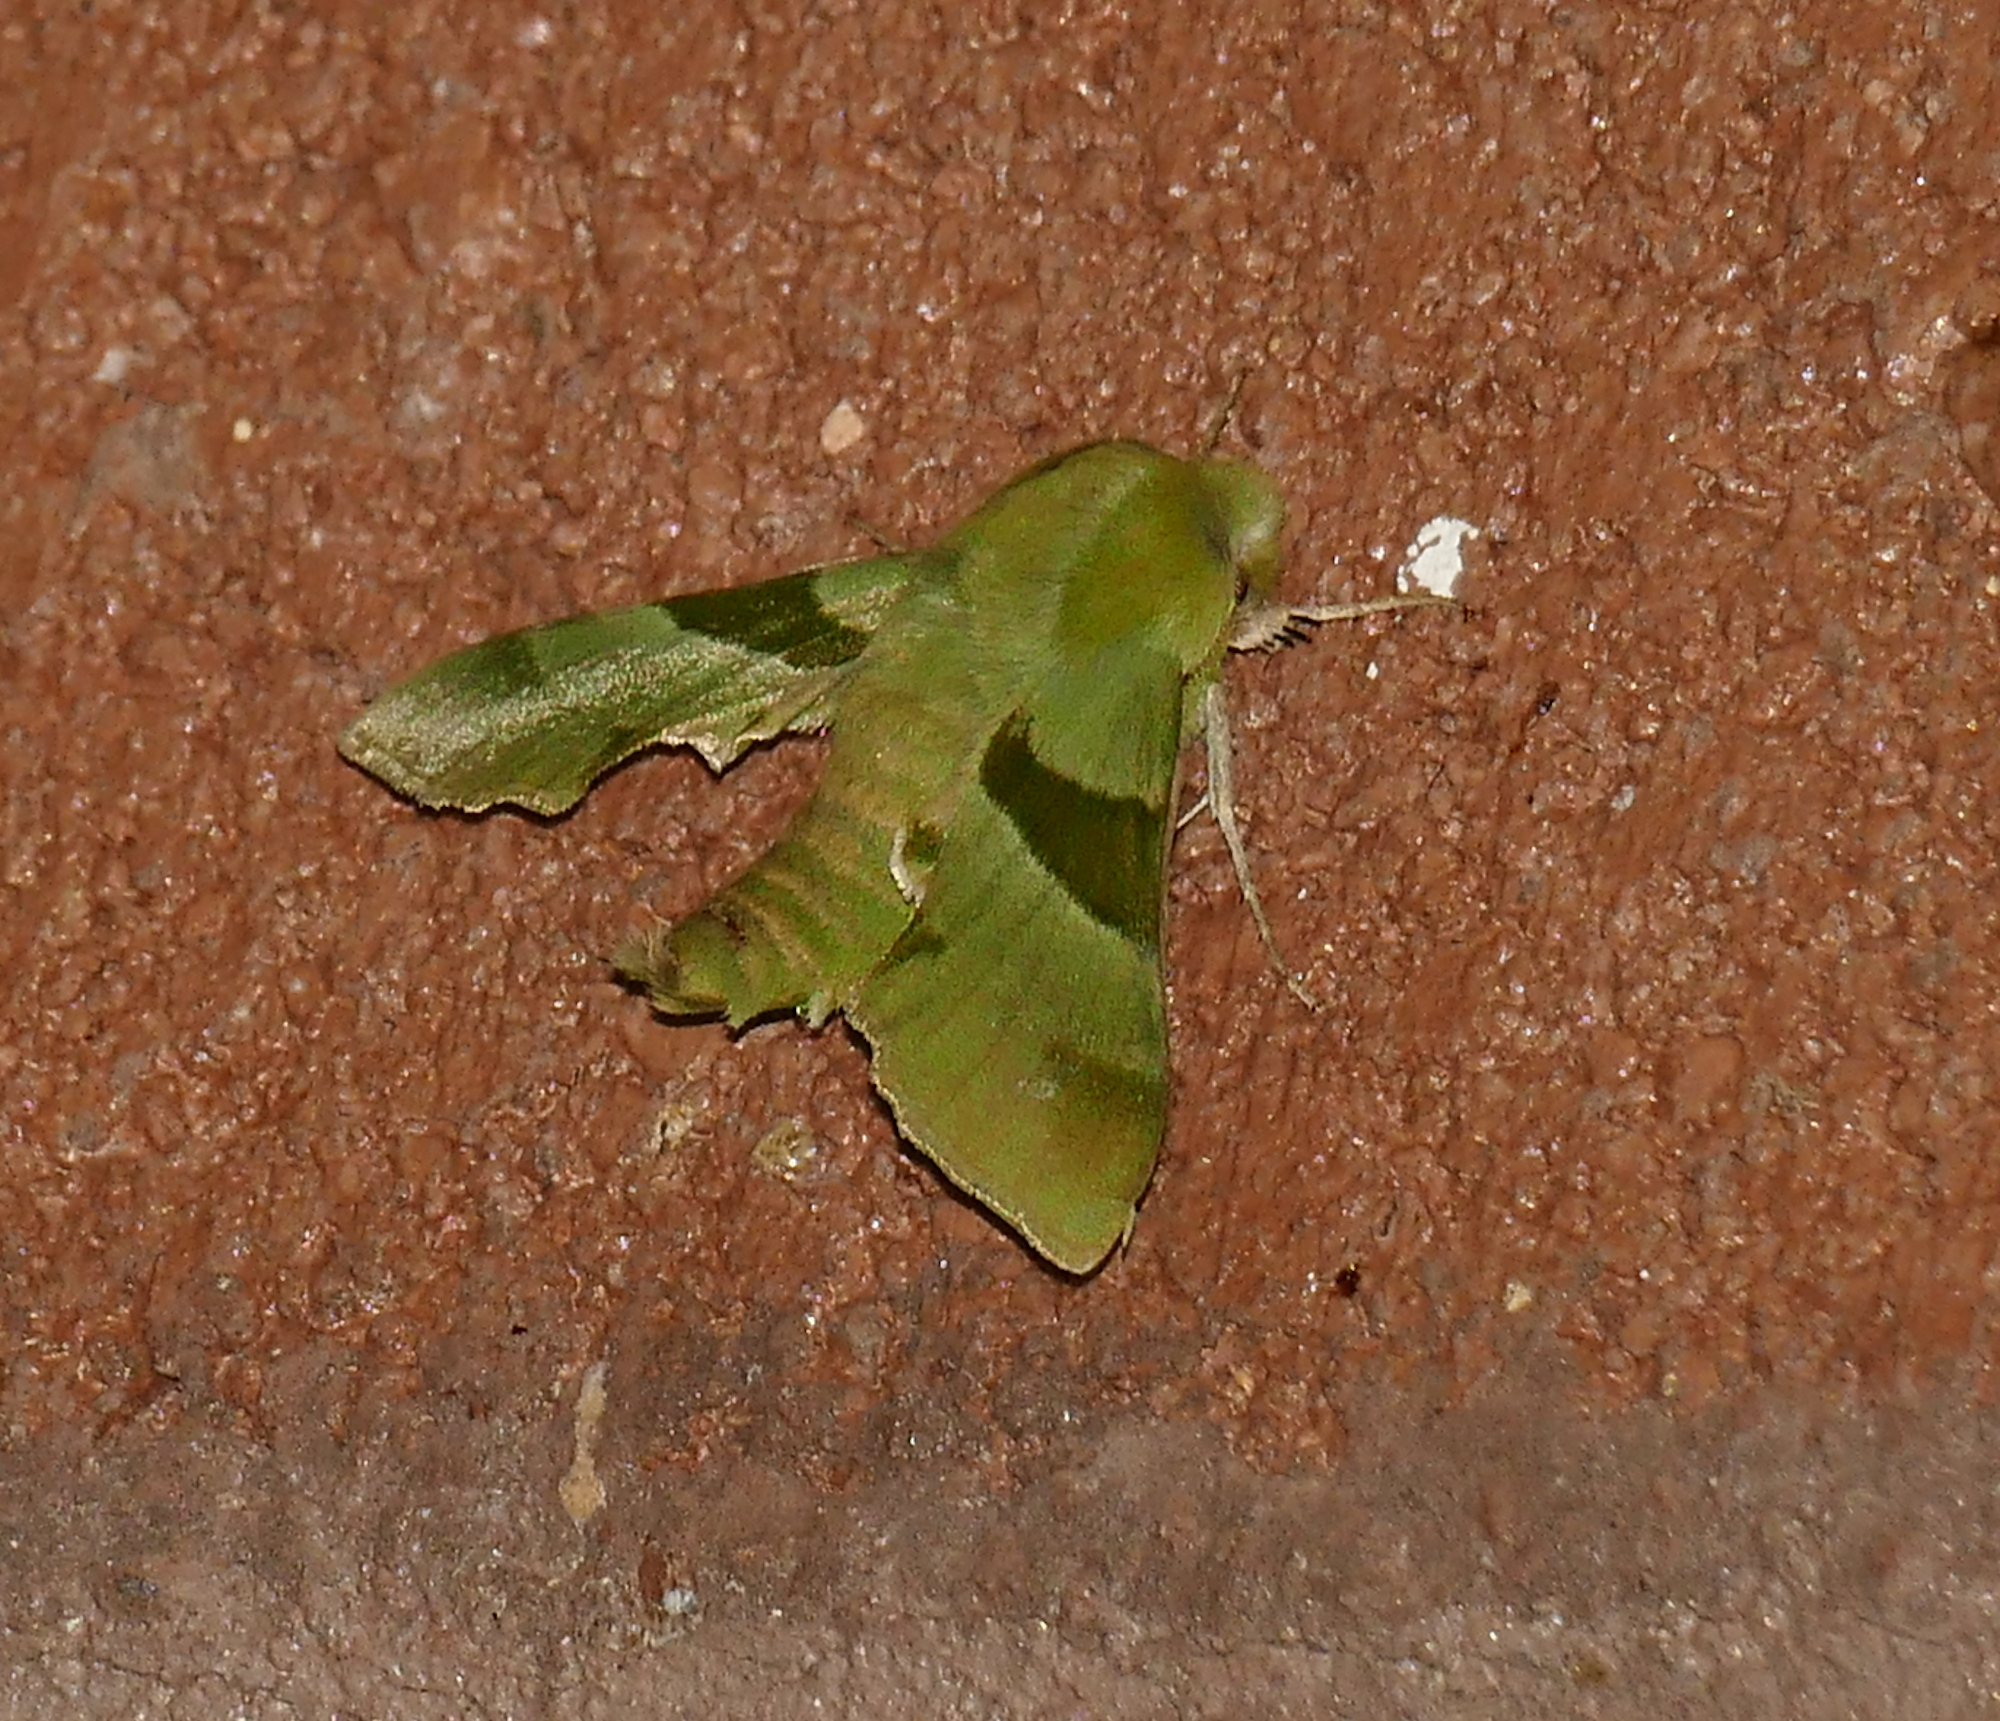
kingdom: Animalia
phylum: Arthropoda
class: Insecta
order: Lepidoptera
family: Sphingidae
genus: Proserpinus
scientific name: Proserpinus terlooii
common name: Terloo's sphinx
